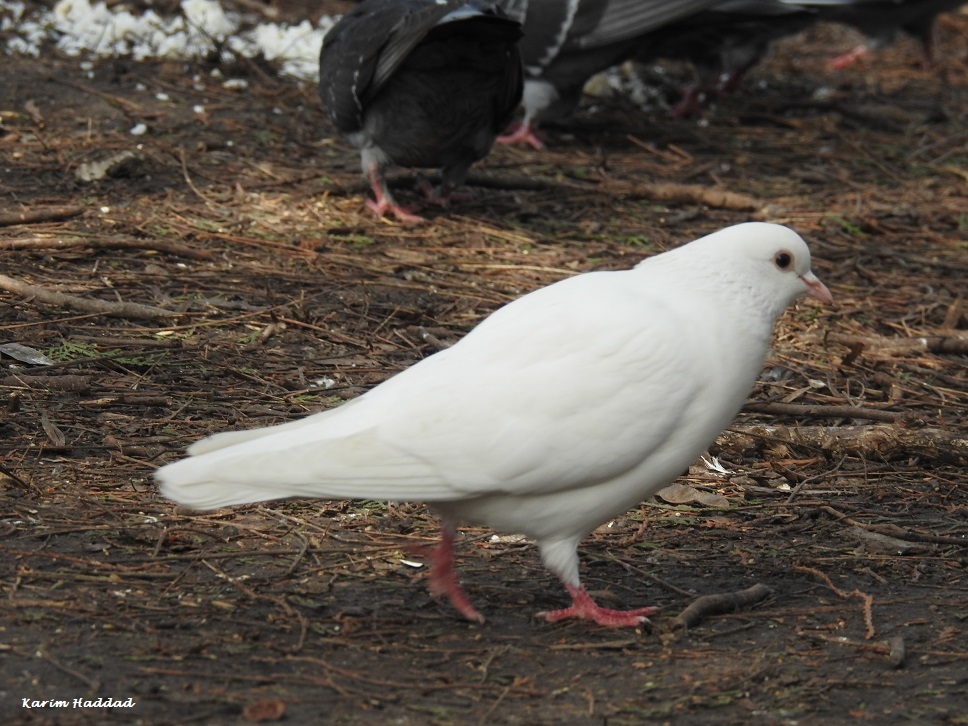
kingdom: Animalia
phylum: Chordata
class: Aves
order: Columbiformes
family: Columbidae
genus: Columba
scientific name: Columba livia
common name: Rock pigeon
